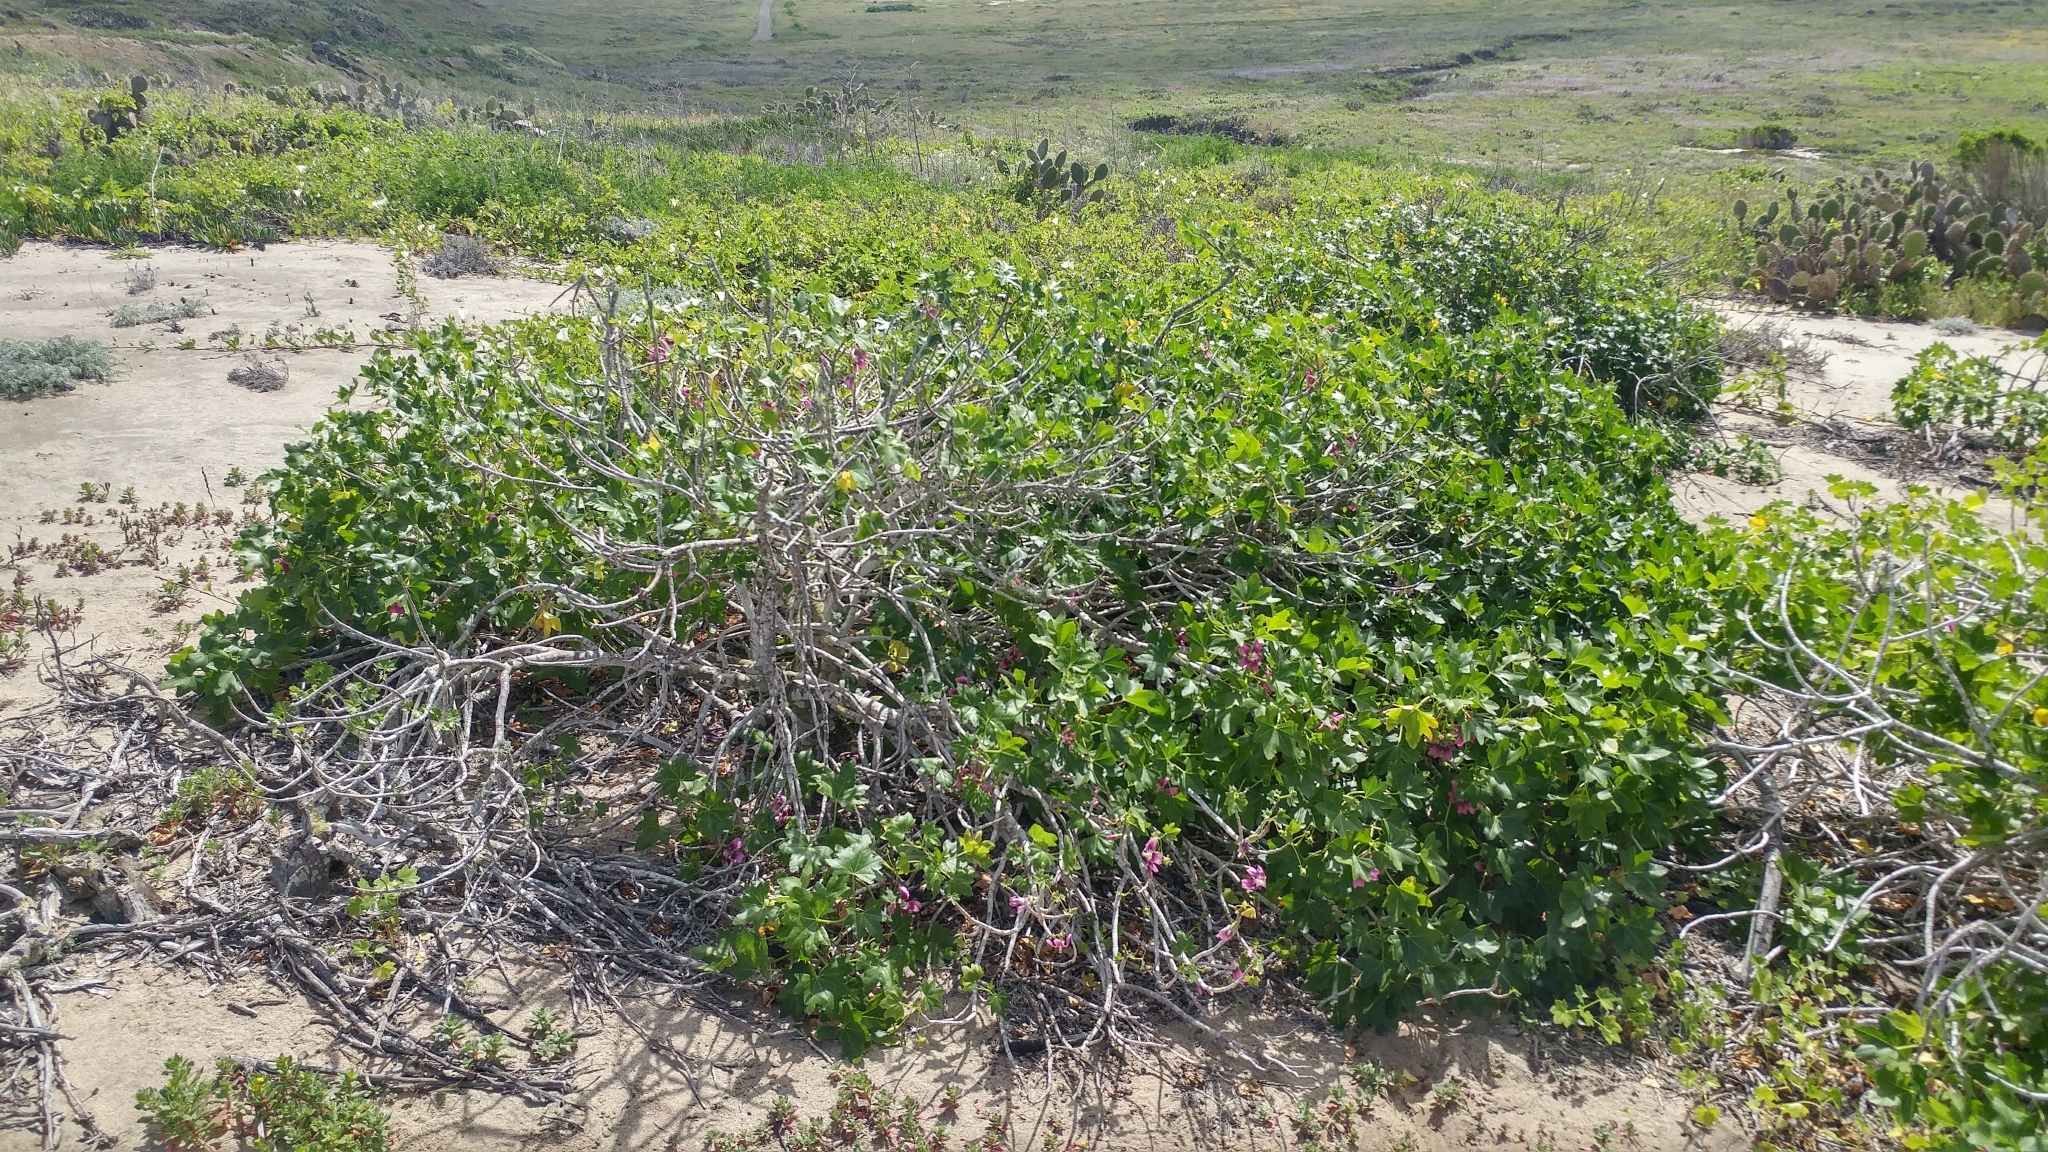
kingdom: Plantae
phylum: Tracheophyta
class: Magnoliopsida
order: Malvales
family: Malvaceae
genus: Malva
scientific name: Malva assurgentiflora
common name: Island mallow
